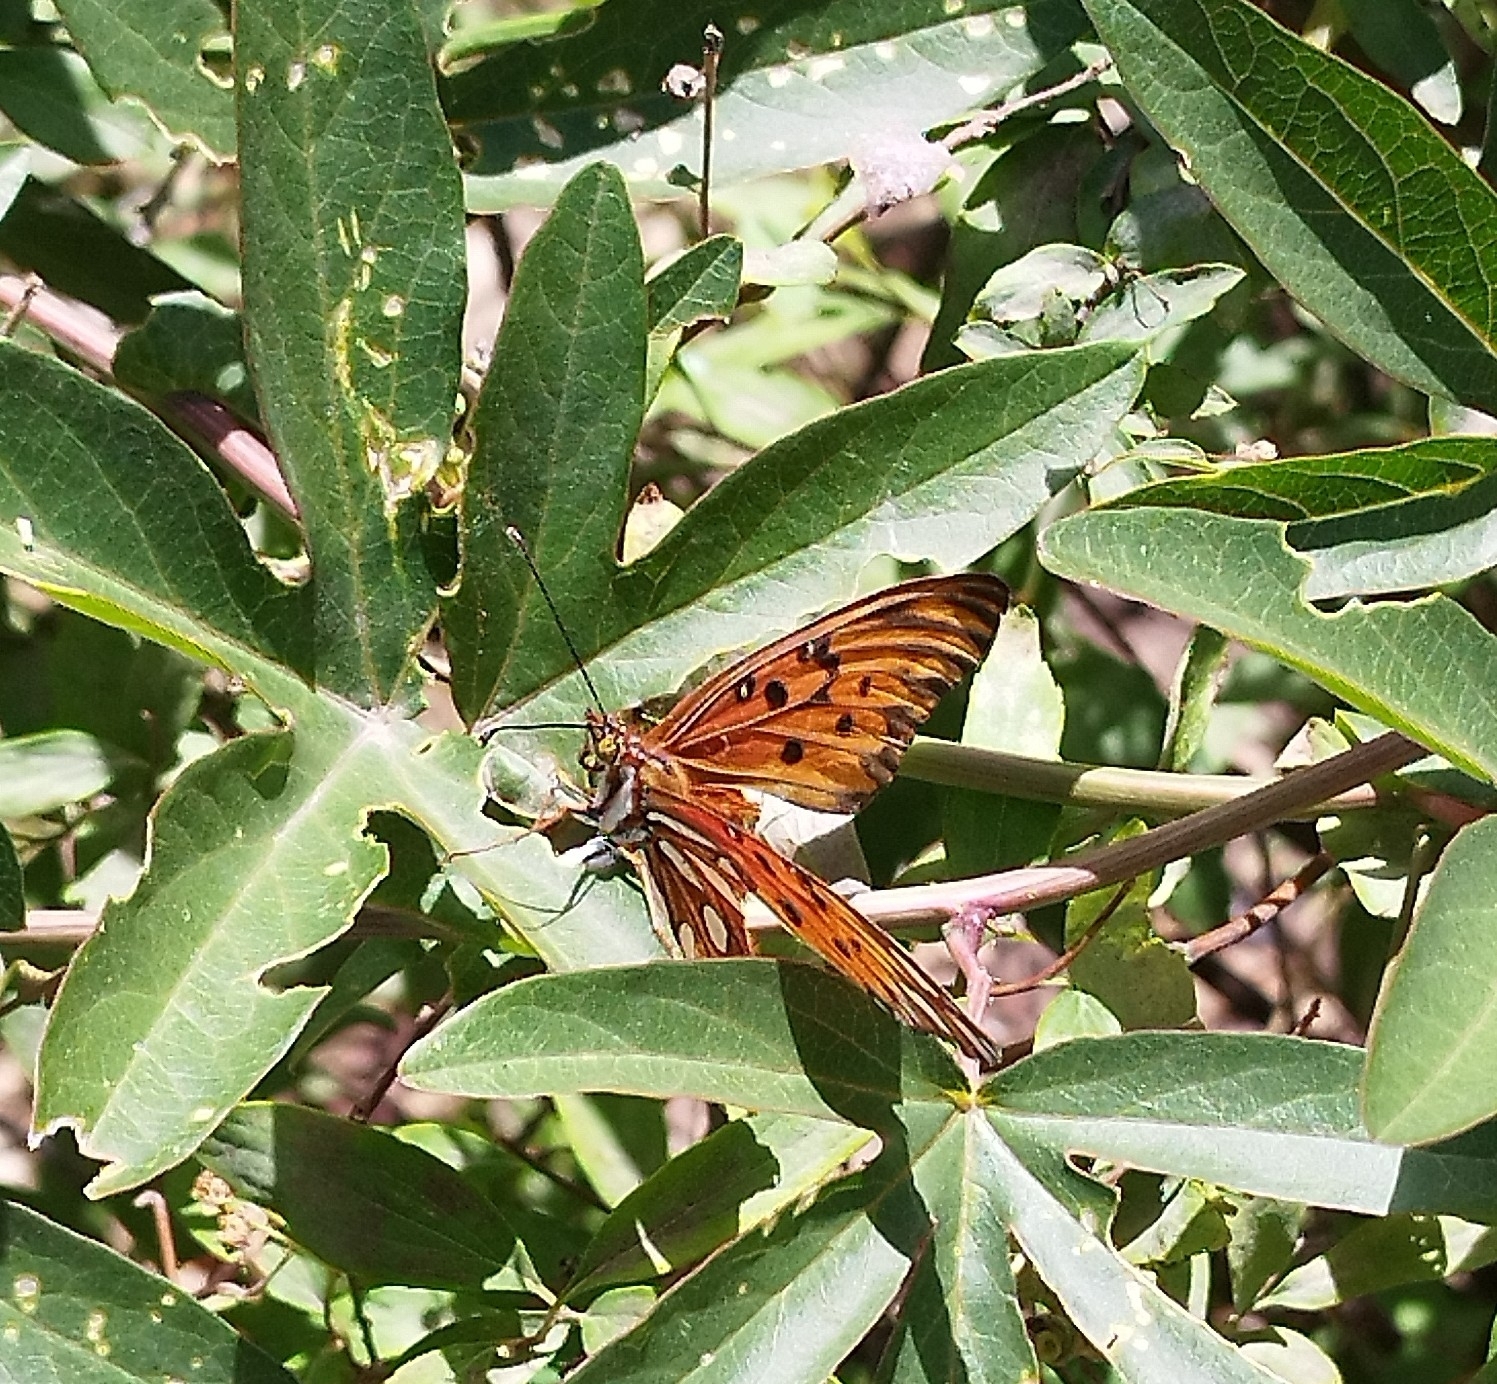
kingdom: Animalia
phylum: Arthropoda
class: Insecta
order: Lepidoptera
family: Nymphalidae
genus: Dione
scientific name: Dione vanillae
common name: Gulf fritillary
